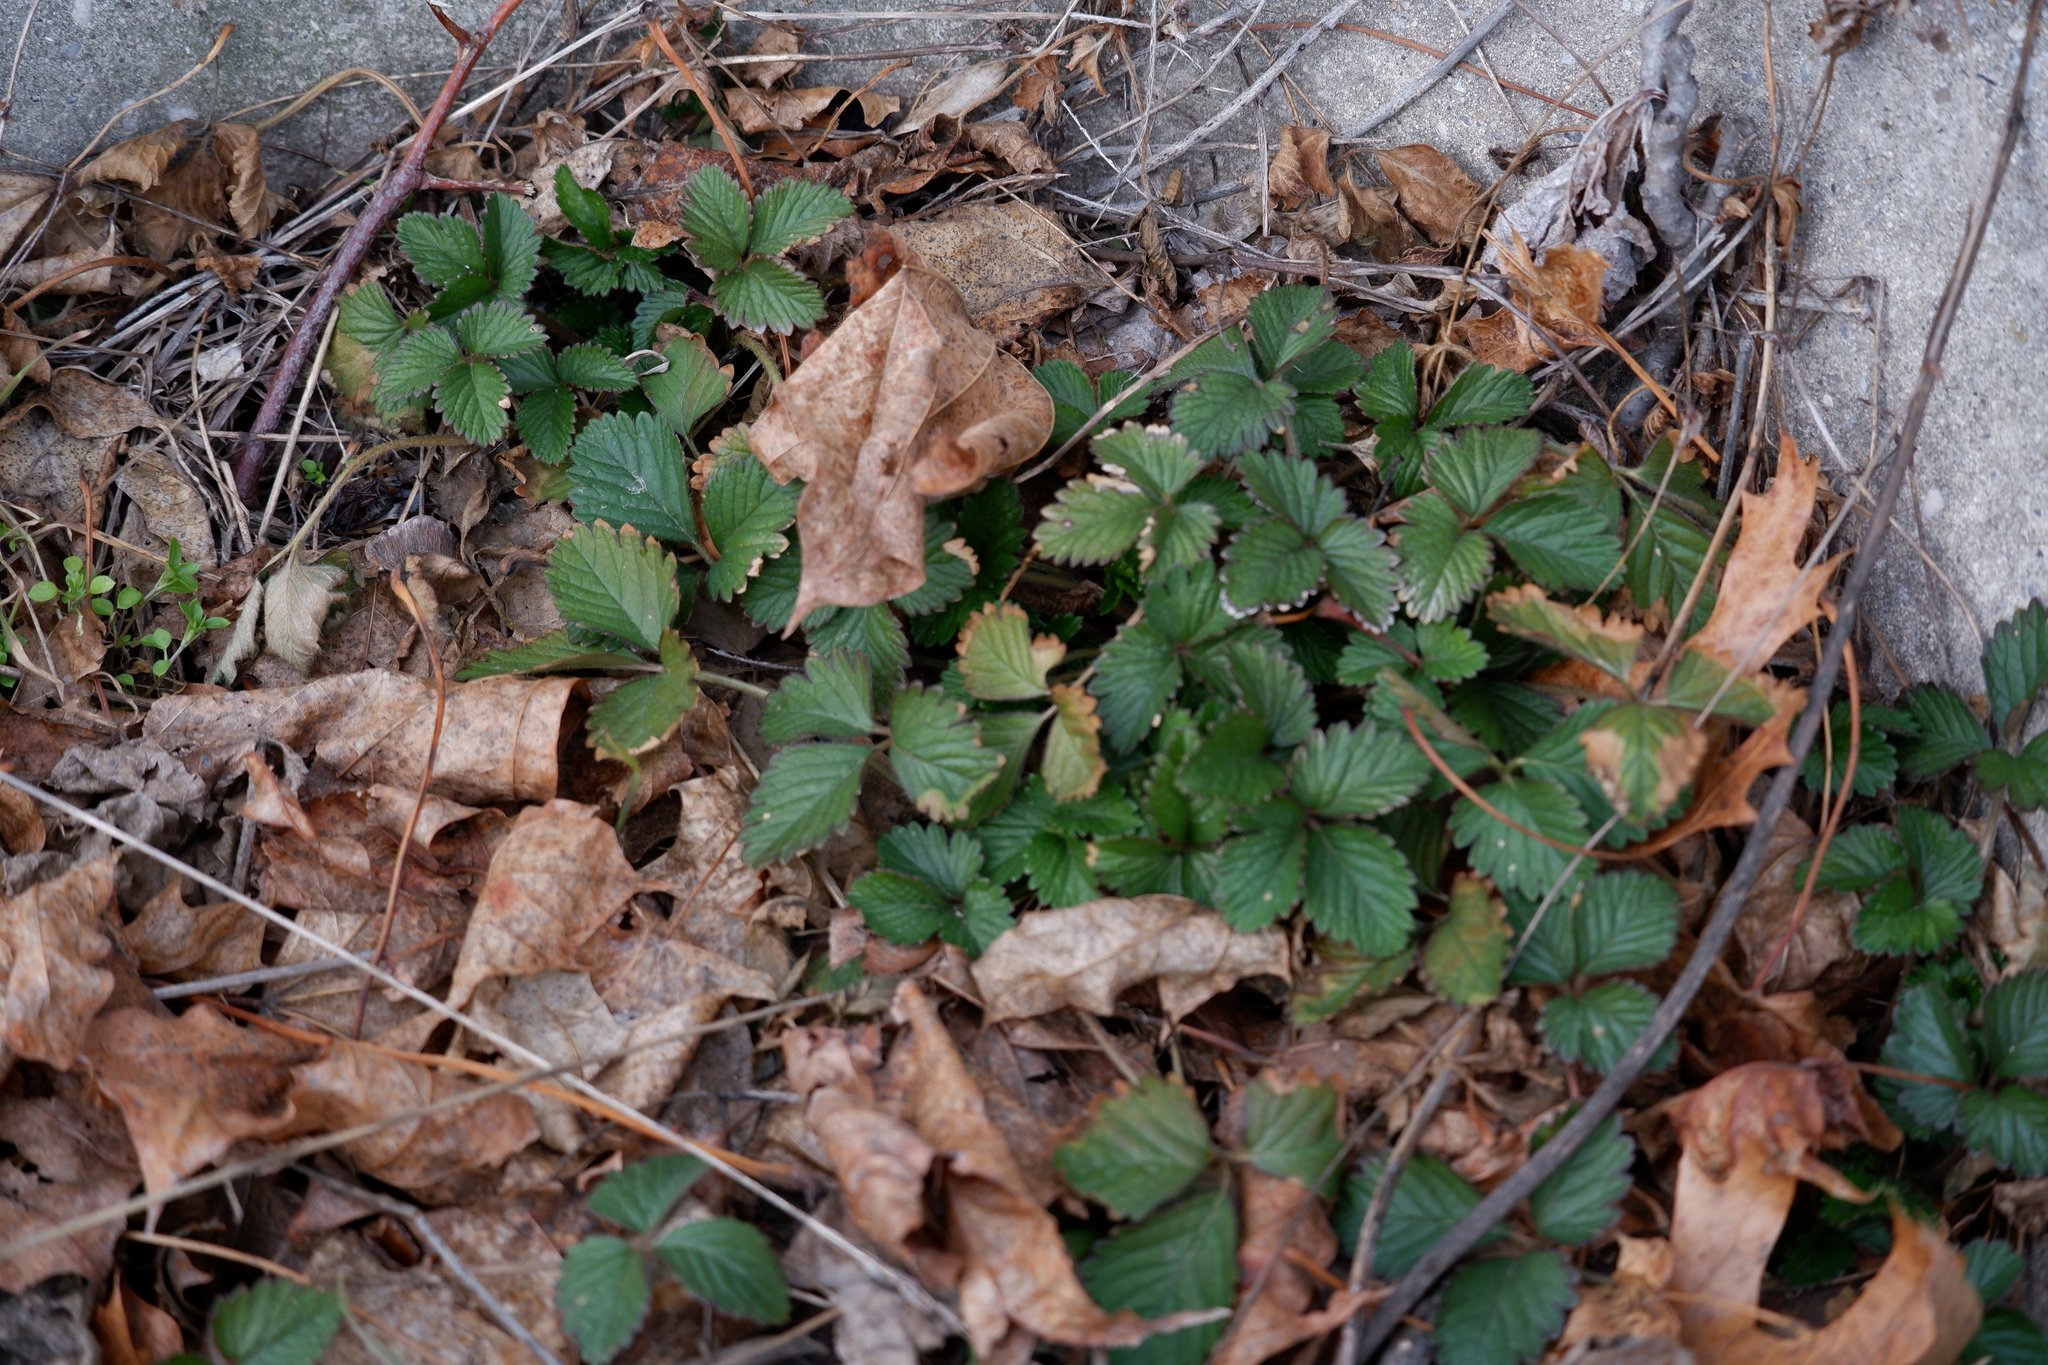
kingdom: Plantae
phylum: Tracheophyta
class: Magnoliopsida
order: Rosales
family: Rosaceae
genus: Potentilla
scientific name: Potentilla indica
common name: Yellow-flowered strawberry
